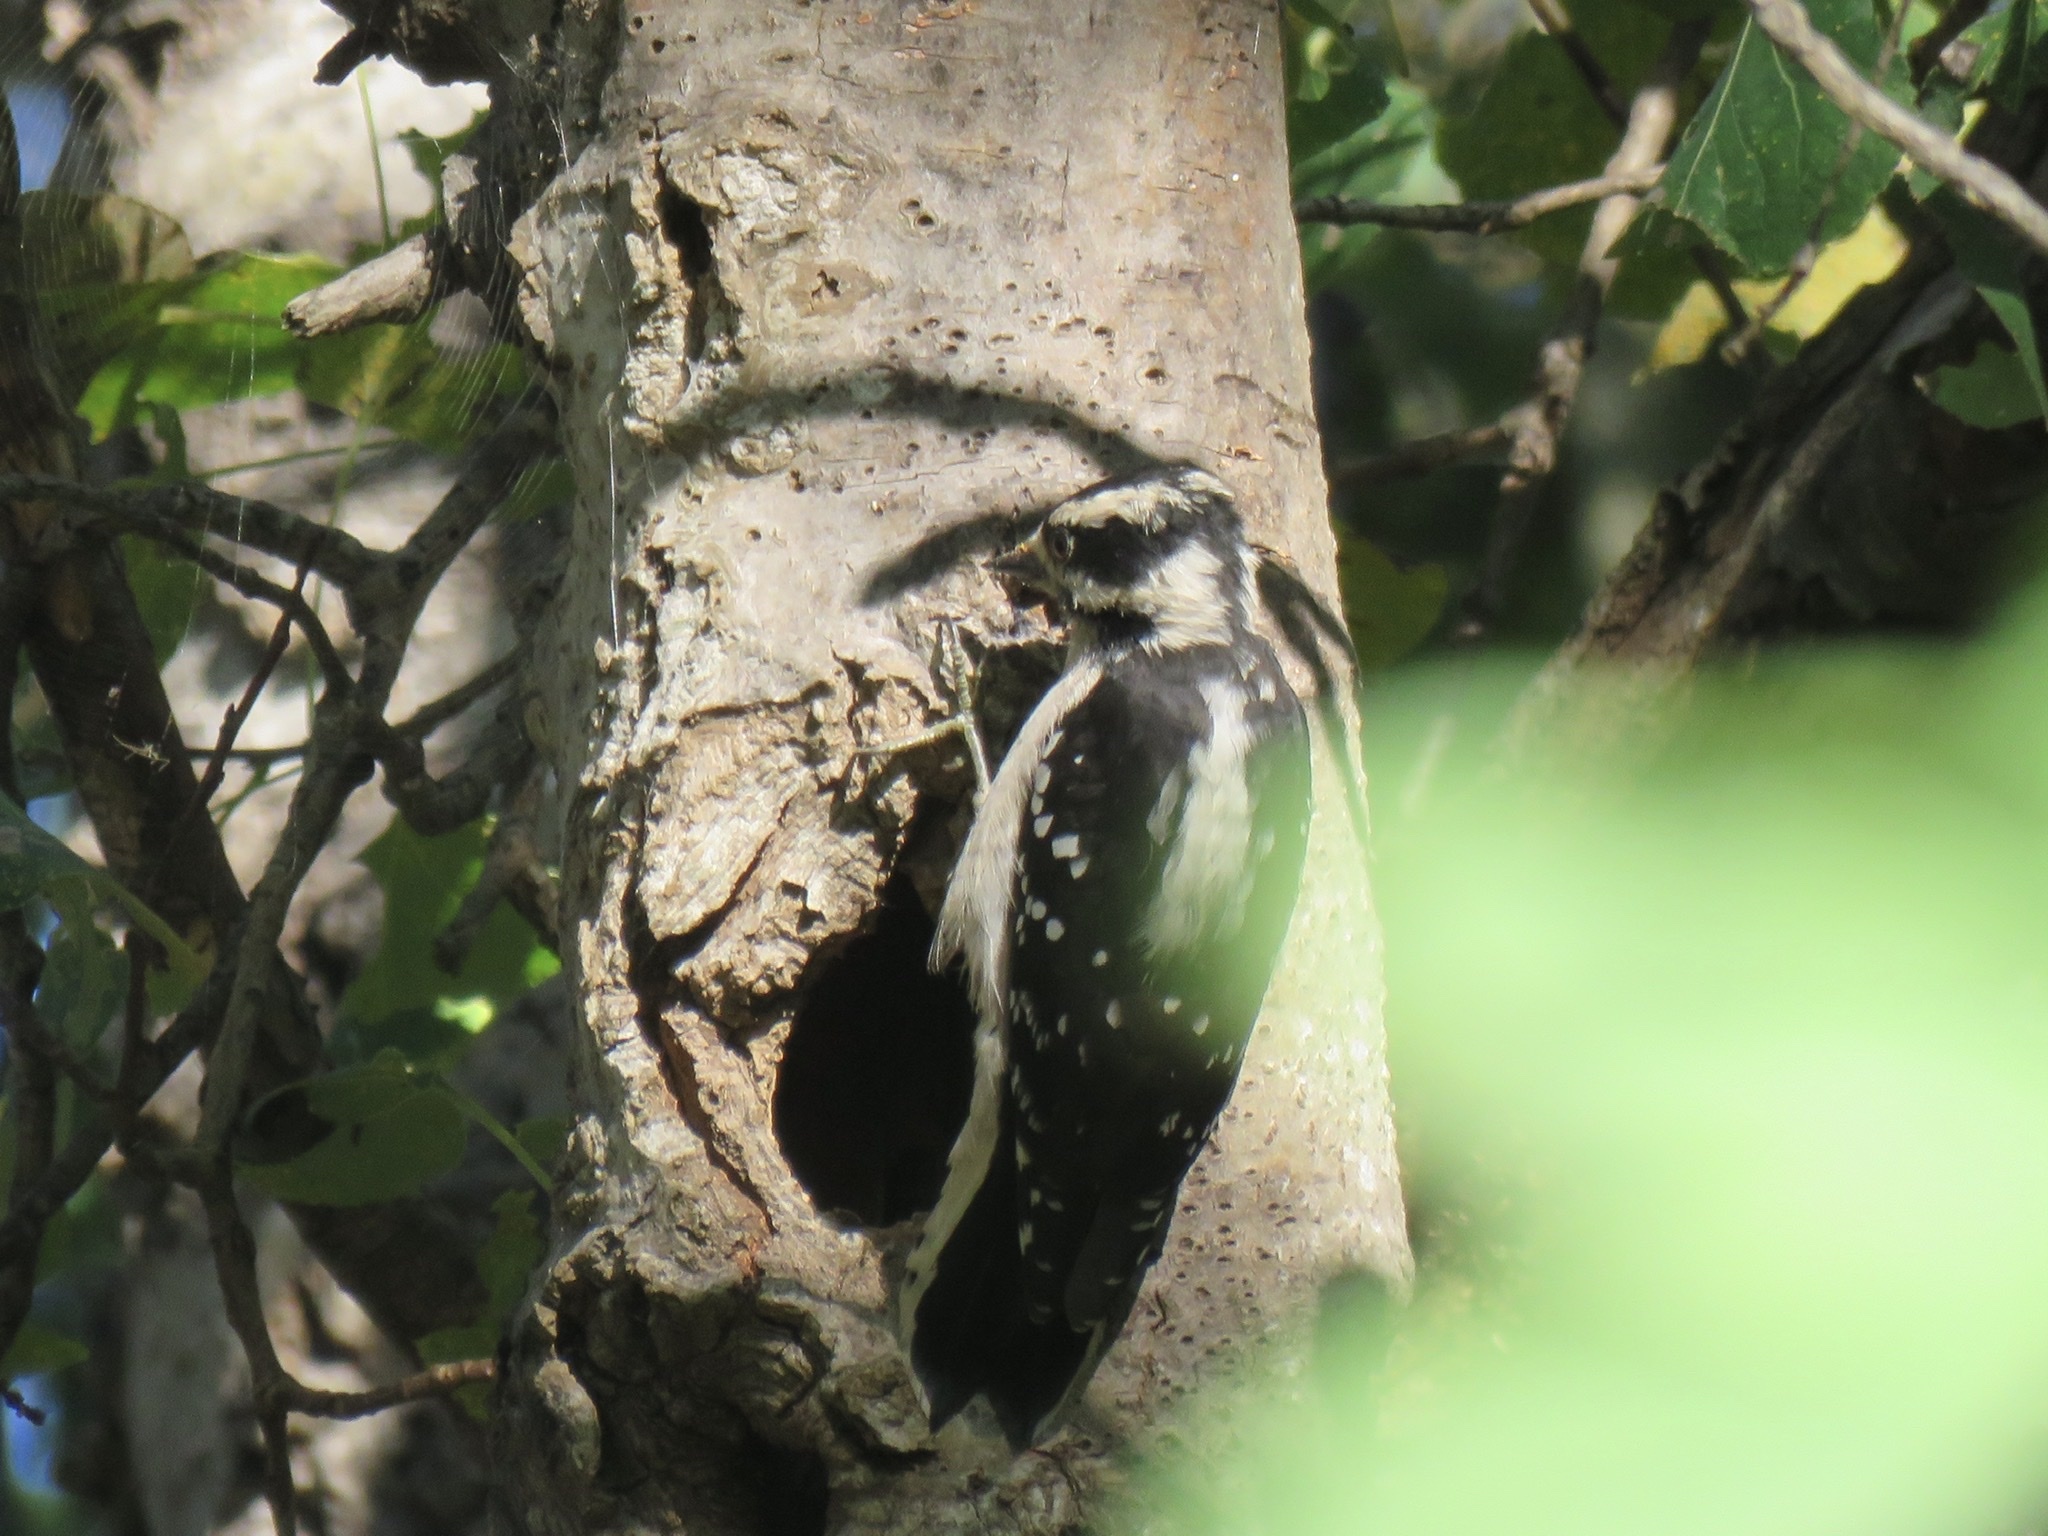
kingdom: Animalia
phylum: Chordata
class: Aves
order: Piciformes
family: Picidae
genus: Dryobates
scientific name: Dryobates pubescens
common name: Downy woodpecker
